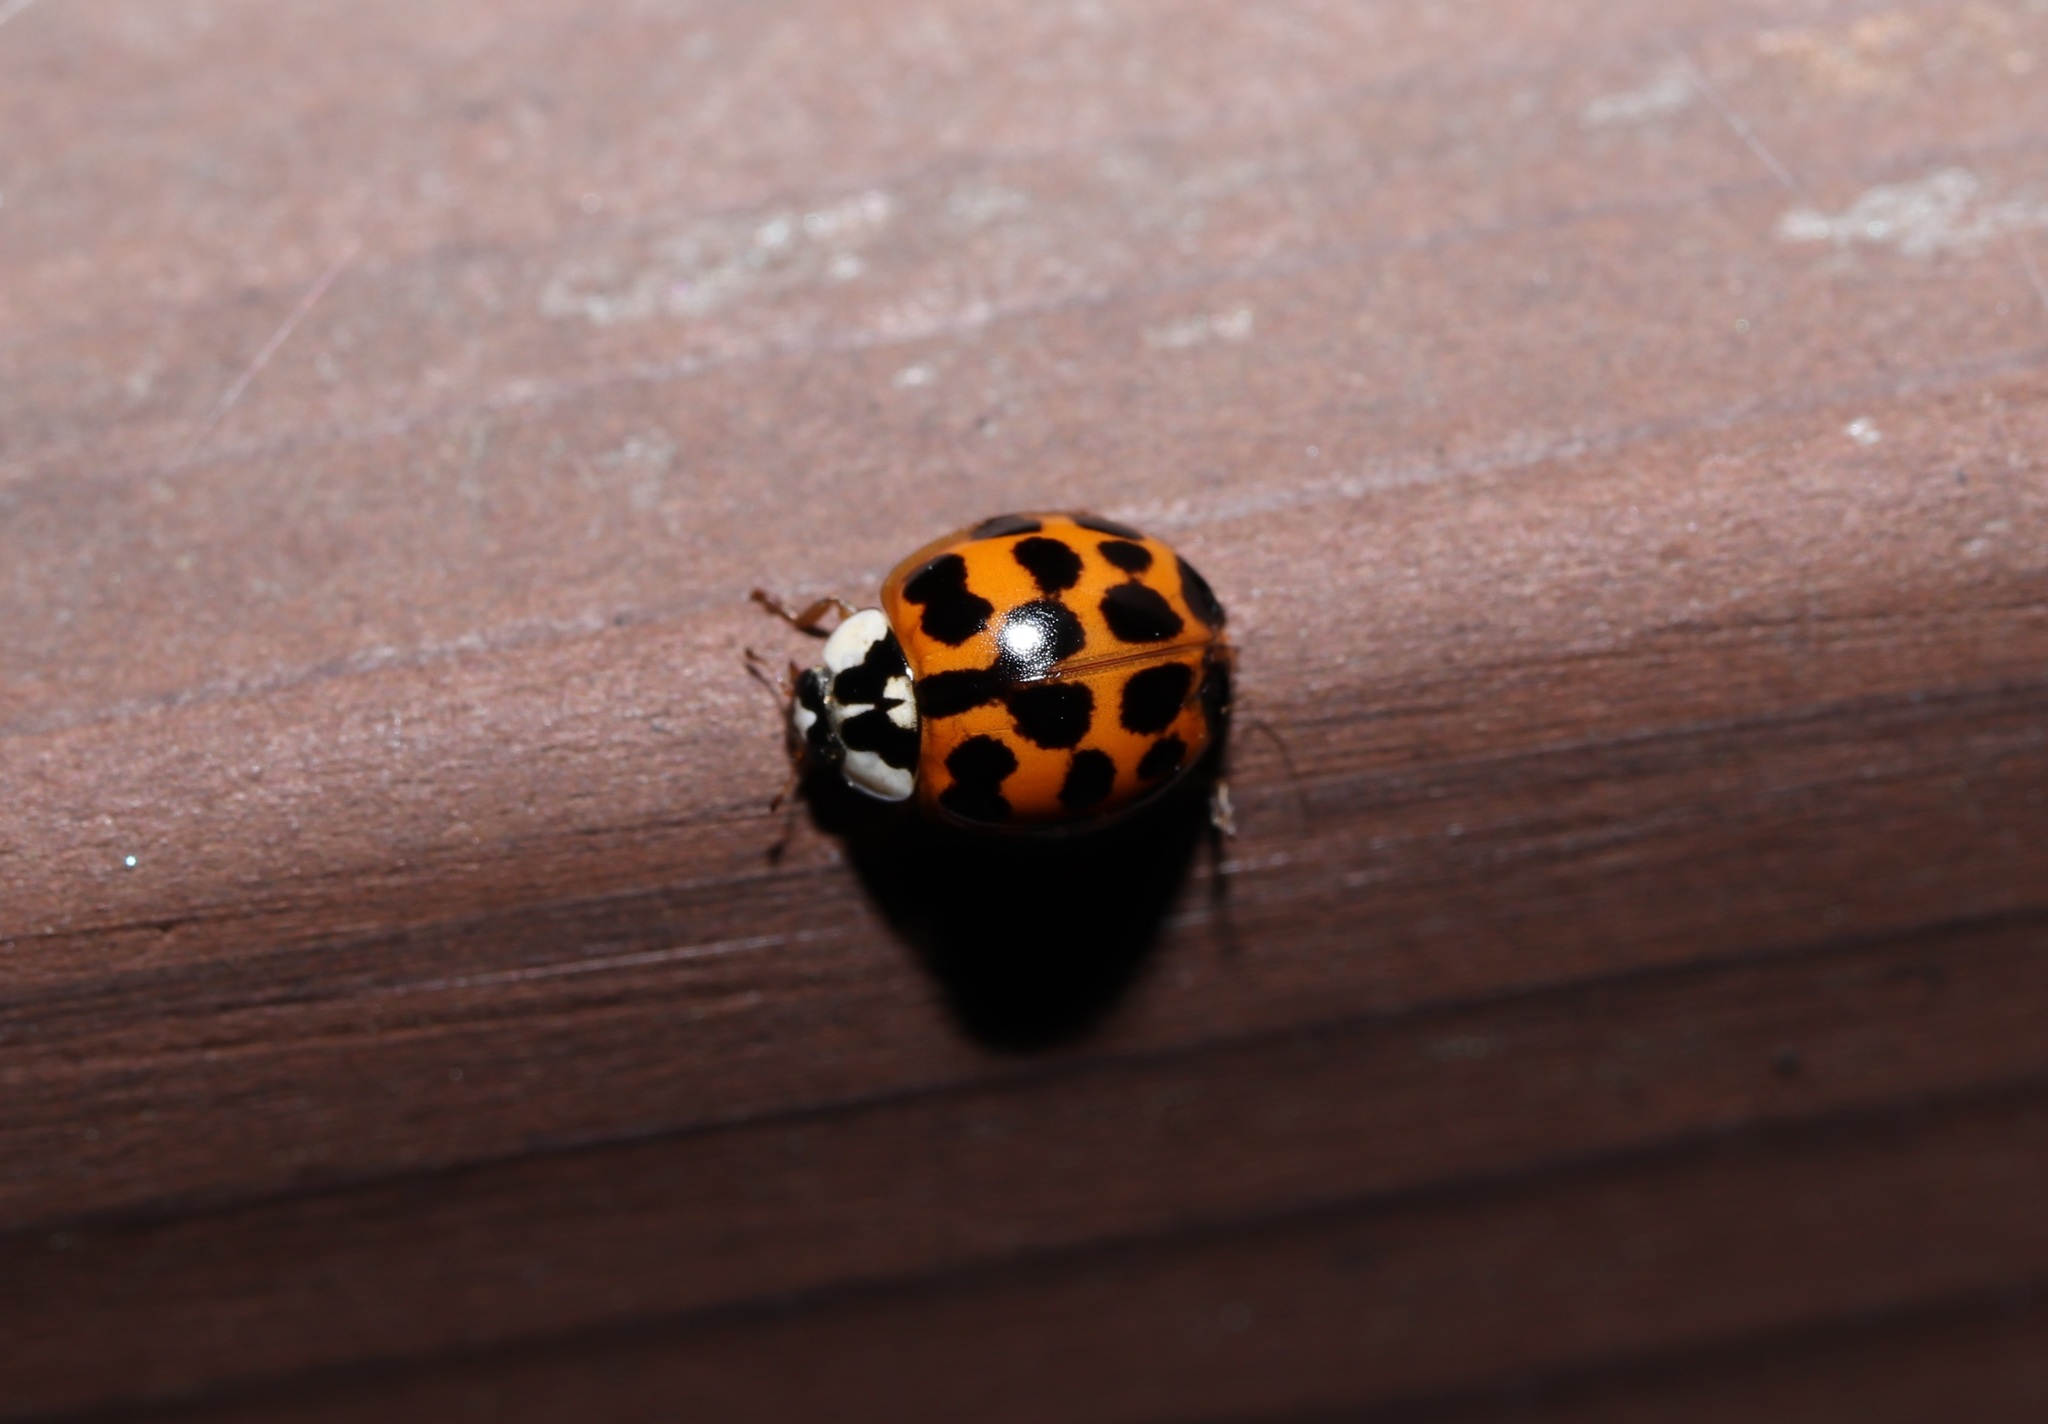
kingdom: Animalia
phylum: Arthropoda
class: Insecta
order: Coleoptera
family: Coccinellidae
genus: Harmonia
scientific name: Harmonia axyridis
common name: Harlequin ladybird
